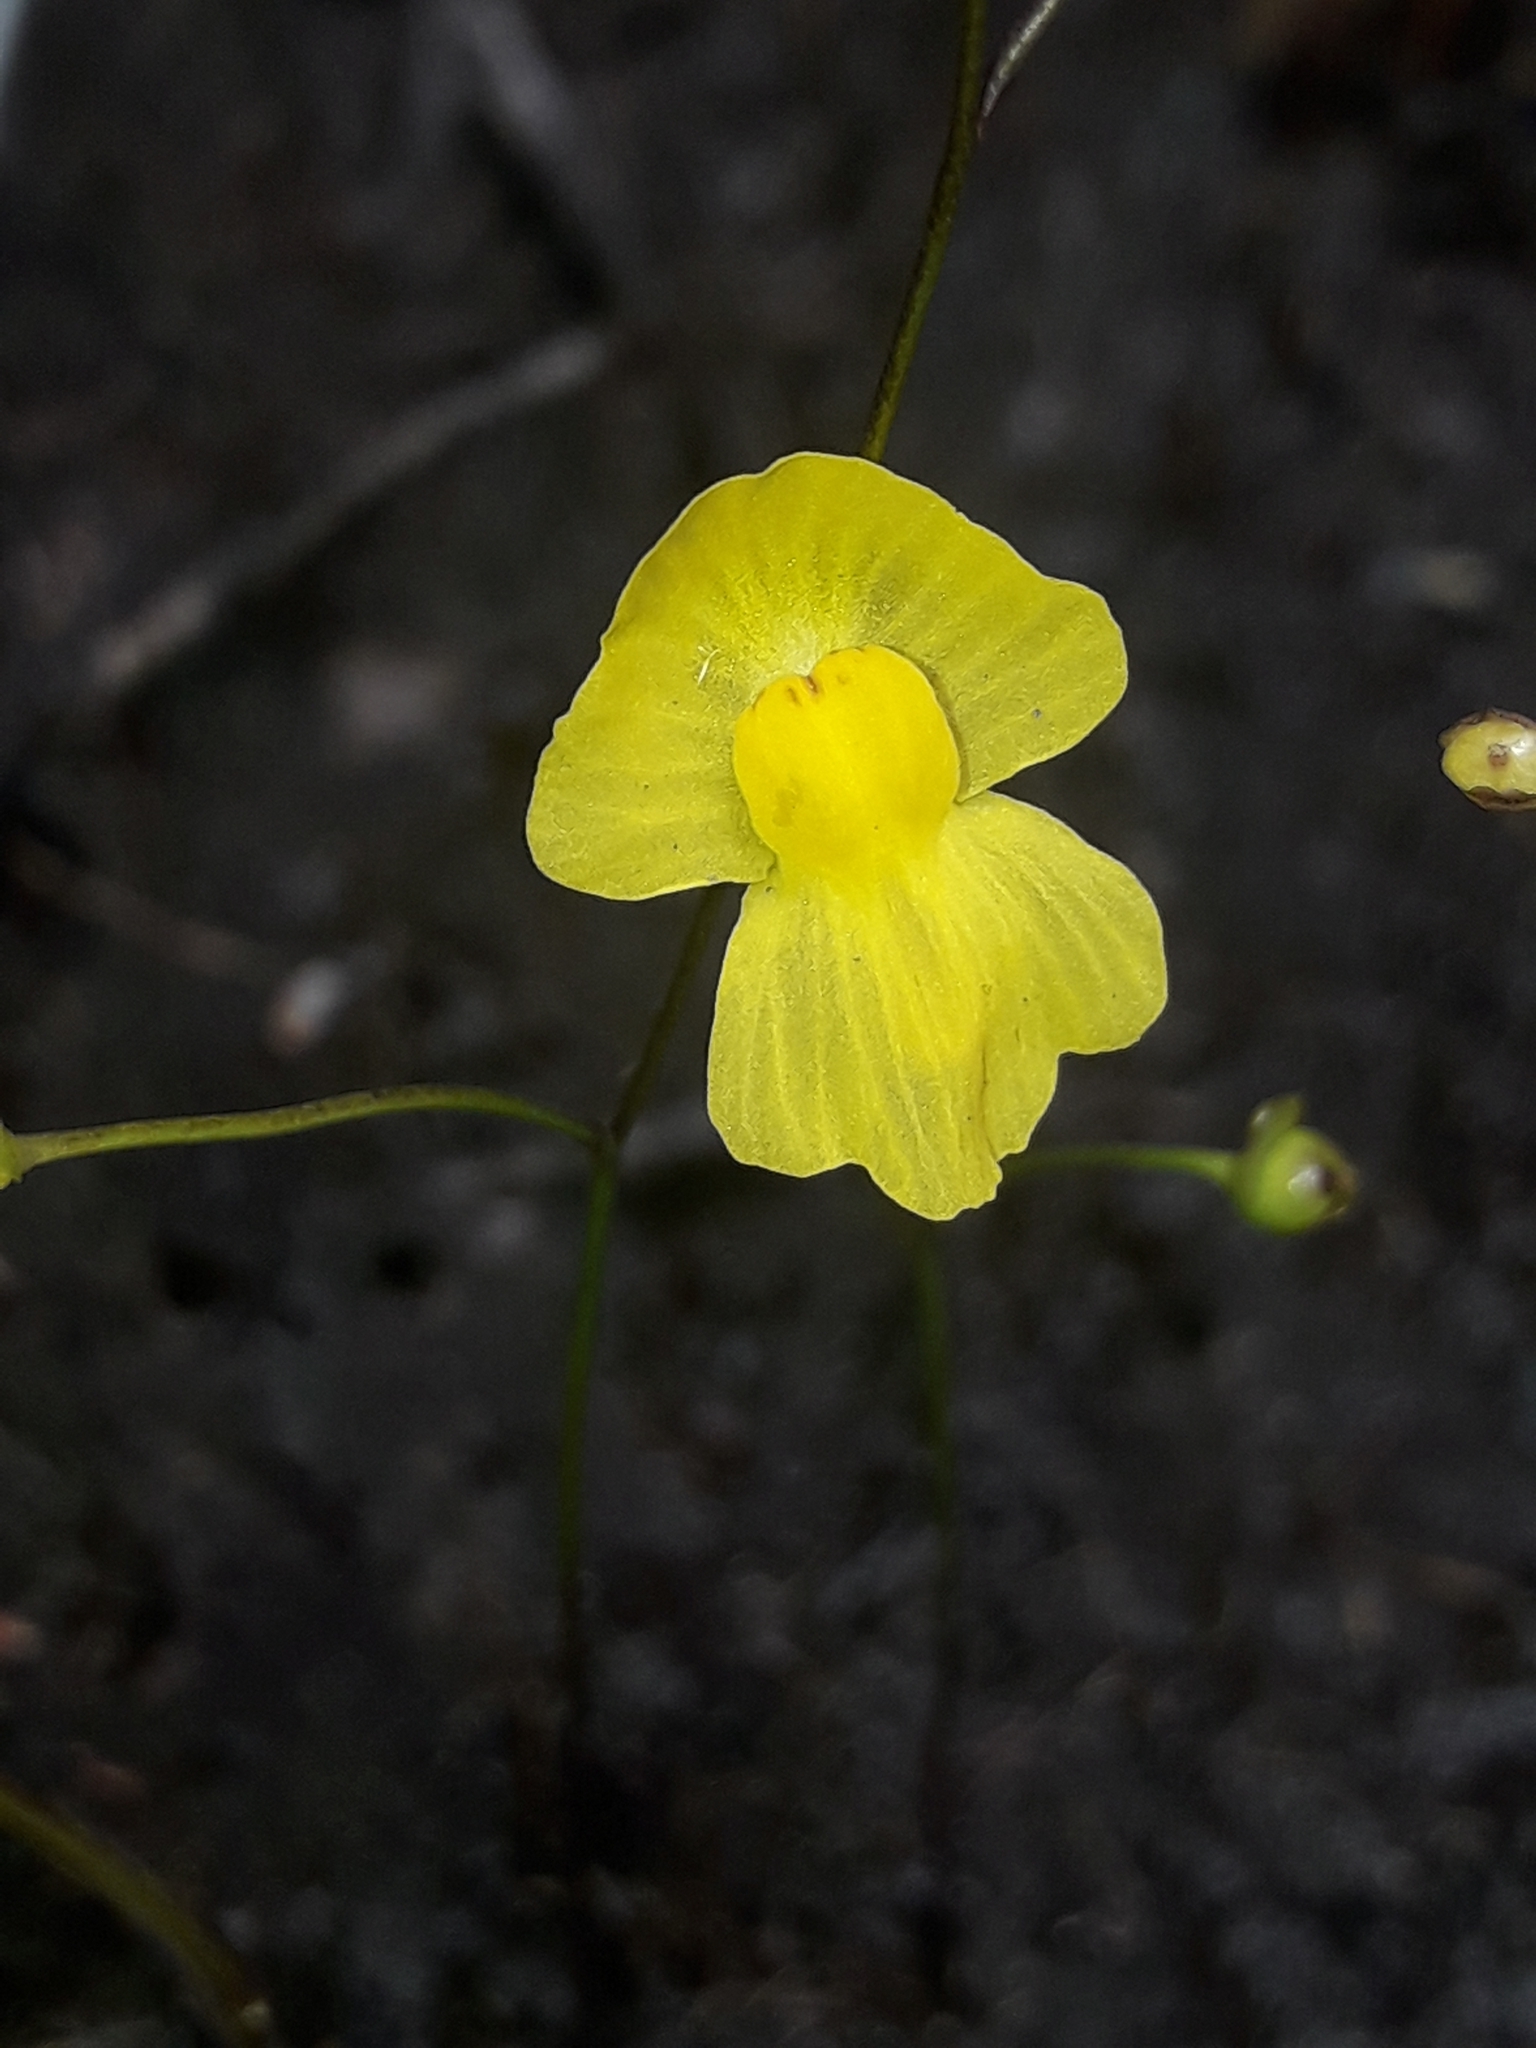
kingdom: Plantae
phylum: Tracheophyta
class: Magnoliopsida
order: Lamiales
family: Lentibulariaceae
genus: Utricularia
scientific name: Utricularia gibba
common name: Humped bladderwort
